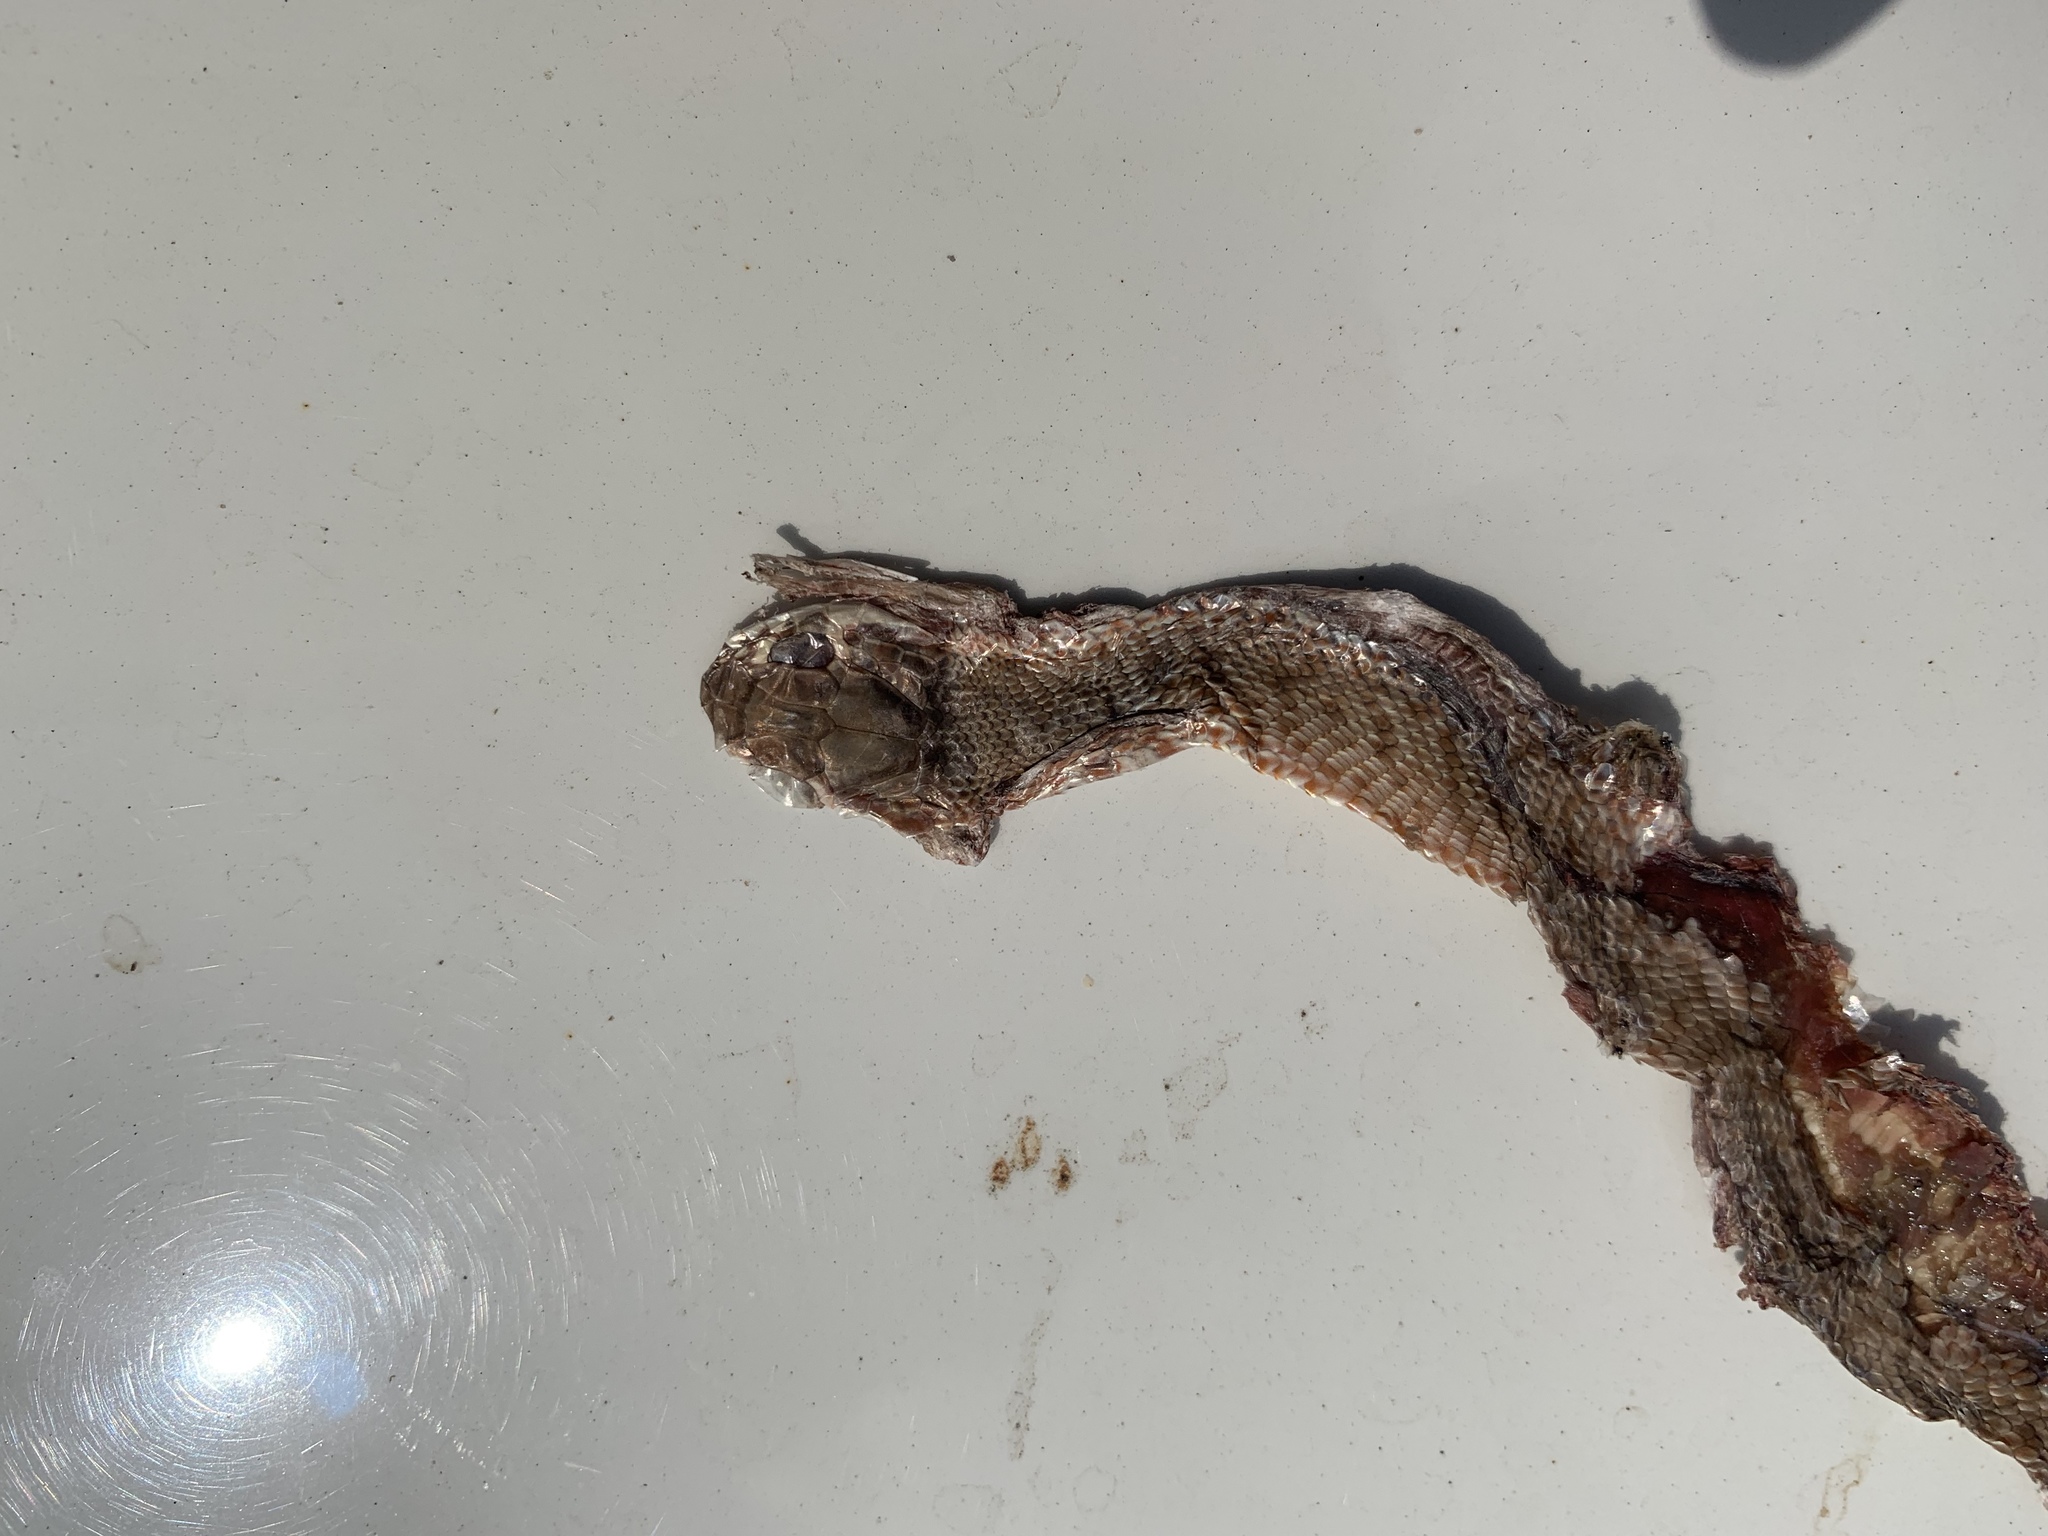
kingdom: Animalia
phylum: Chordata
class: Squamata
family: Colubridae
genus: Masticophis
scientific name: Masticophis flagellum
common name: Coachwhip
